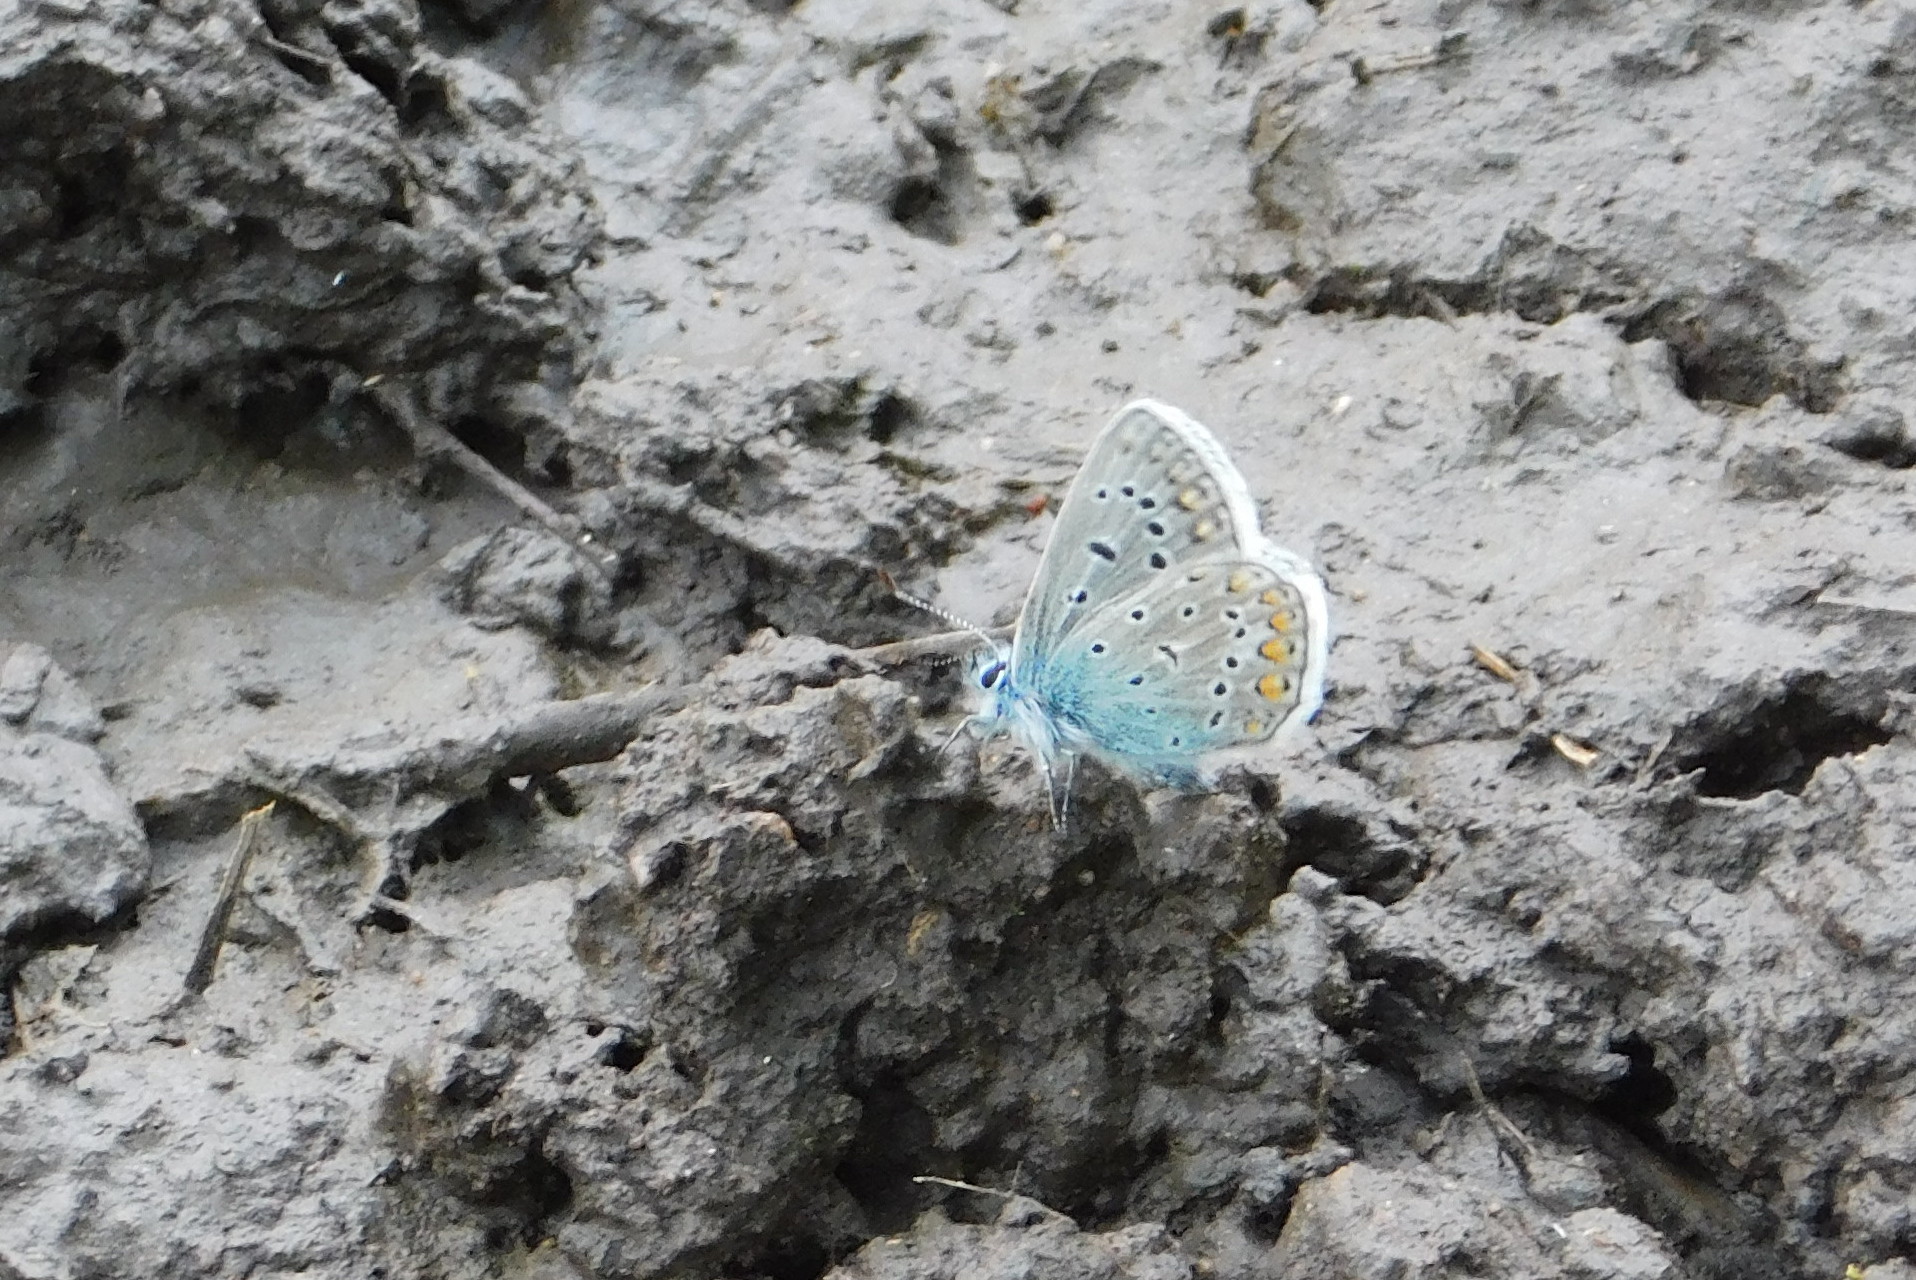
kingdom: Animalia
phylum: Arthropoda
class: Insecta
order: Lepidoptera
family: Lycaenidae
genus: Polyommatus
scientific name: Polyommatus icarus
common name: Common blue
